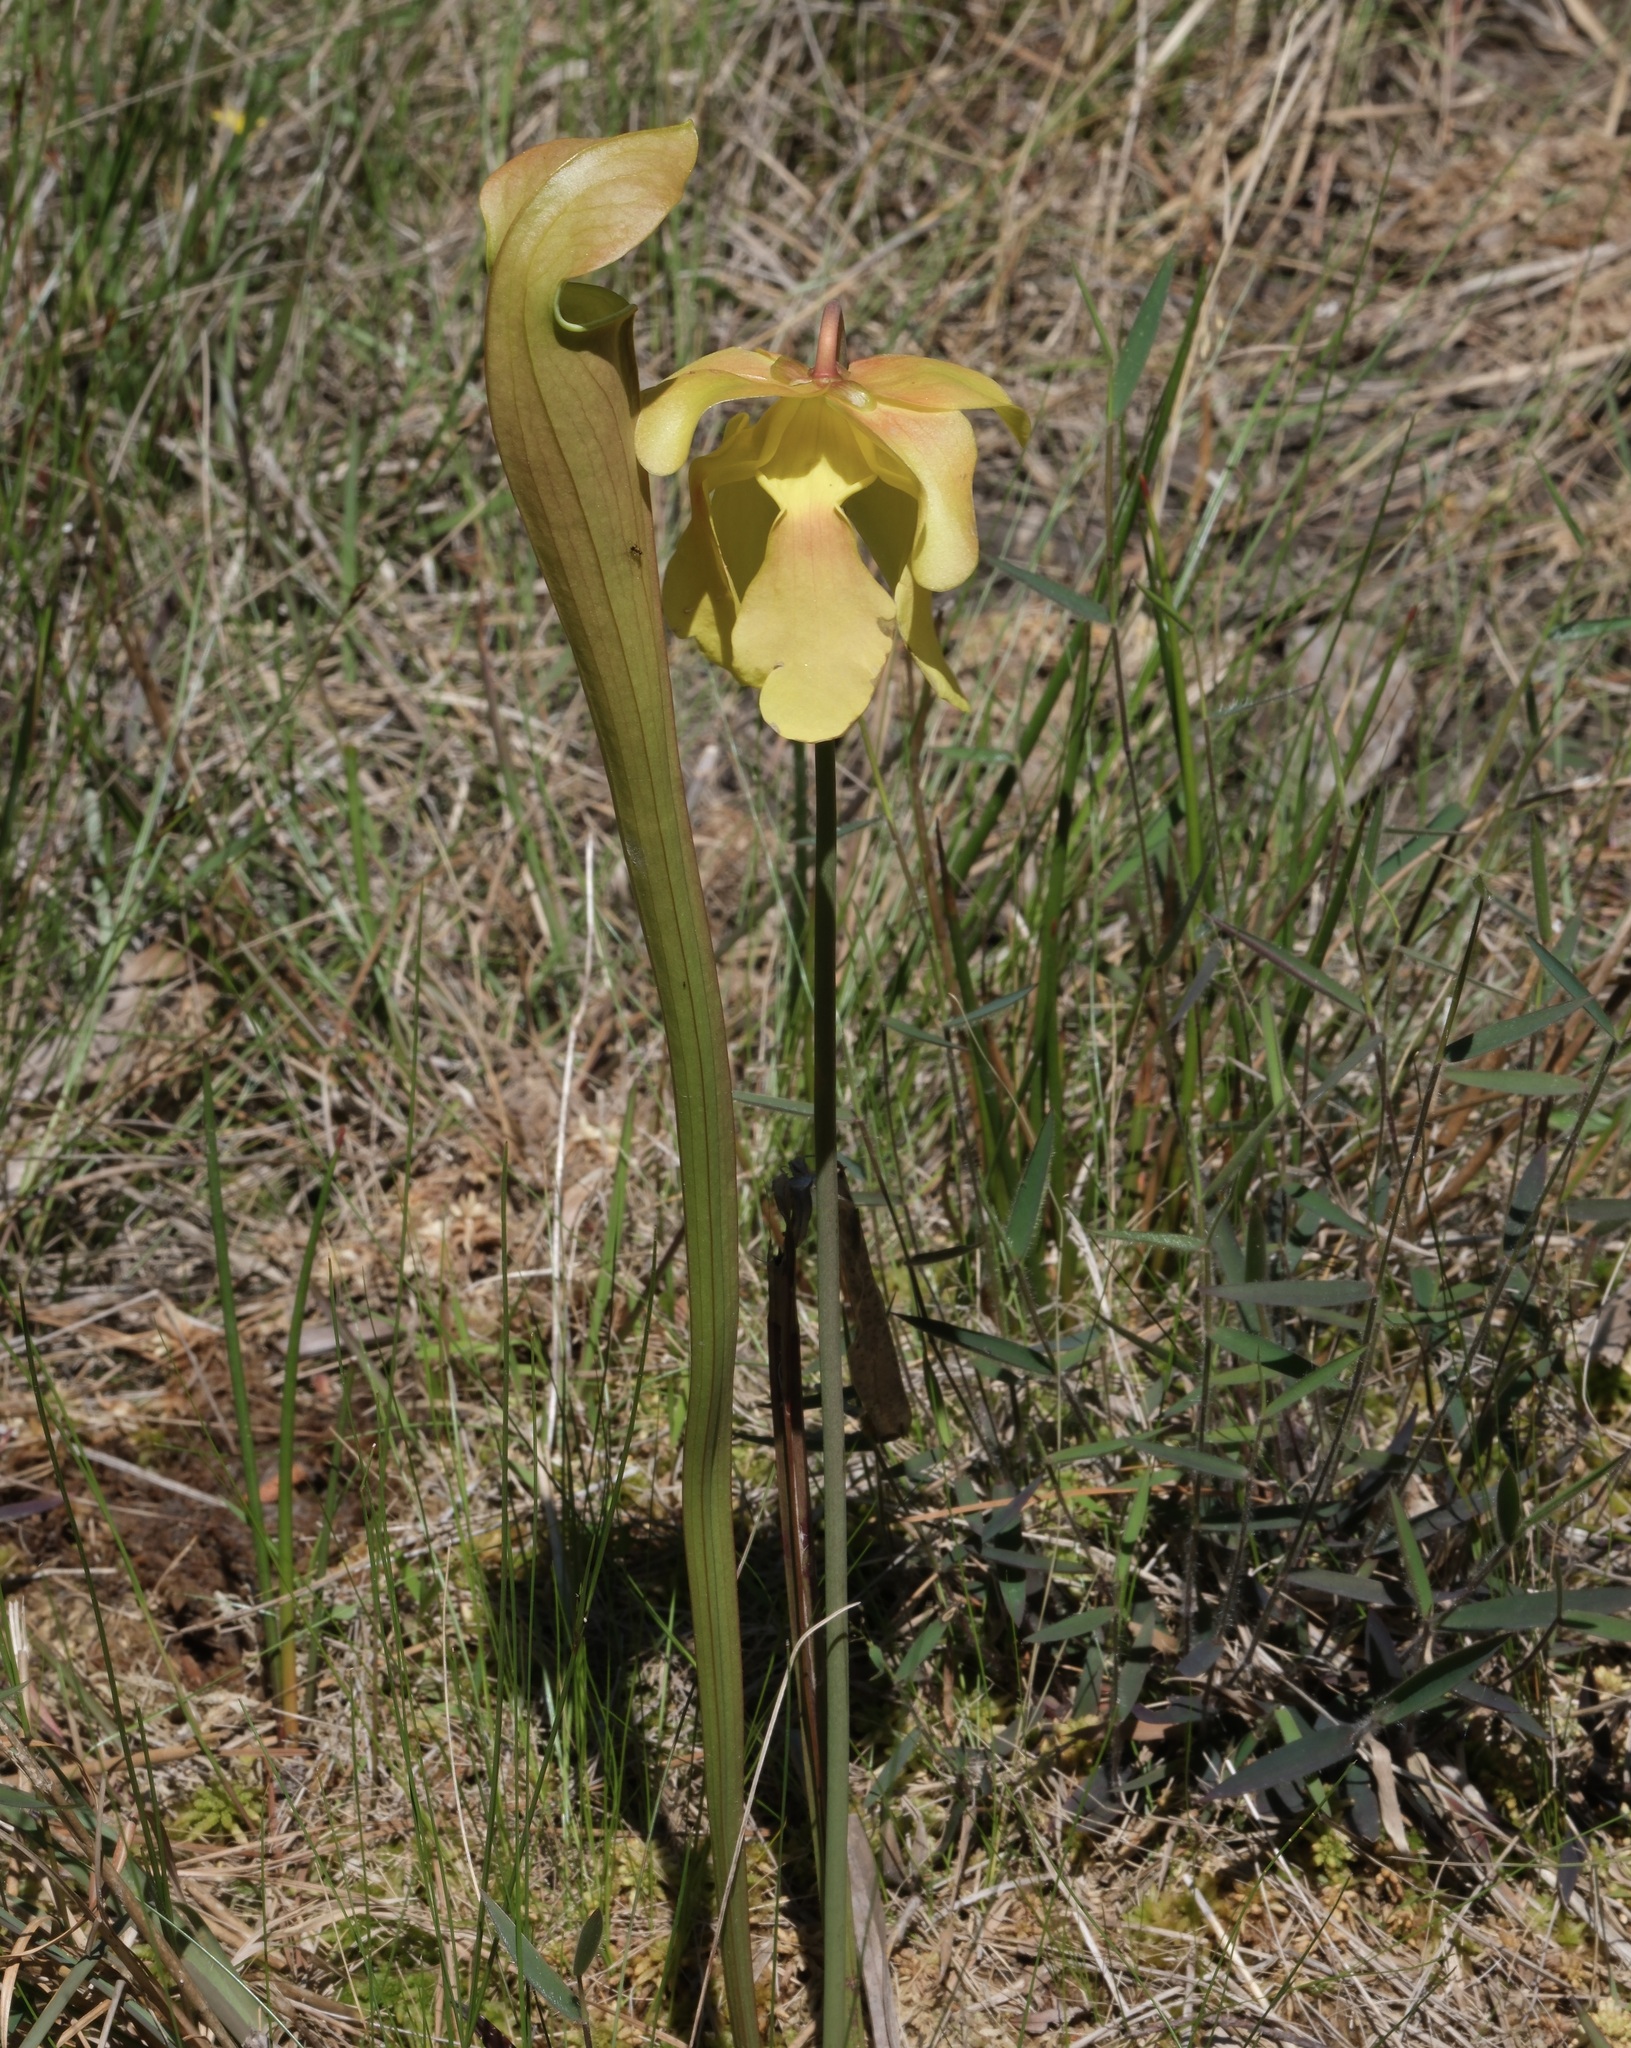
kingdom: Plantae
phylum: Tracheophyta
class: Magnoliopsida
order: Ericales
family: Sarraceniaceae
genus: Sarracenia
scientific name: Sarracenia alata
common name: Yellow trumpets
